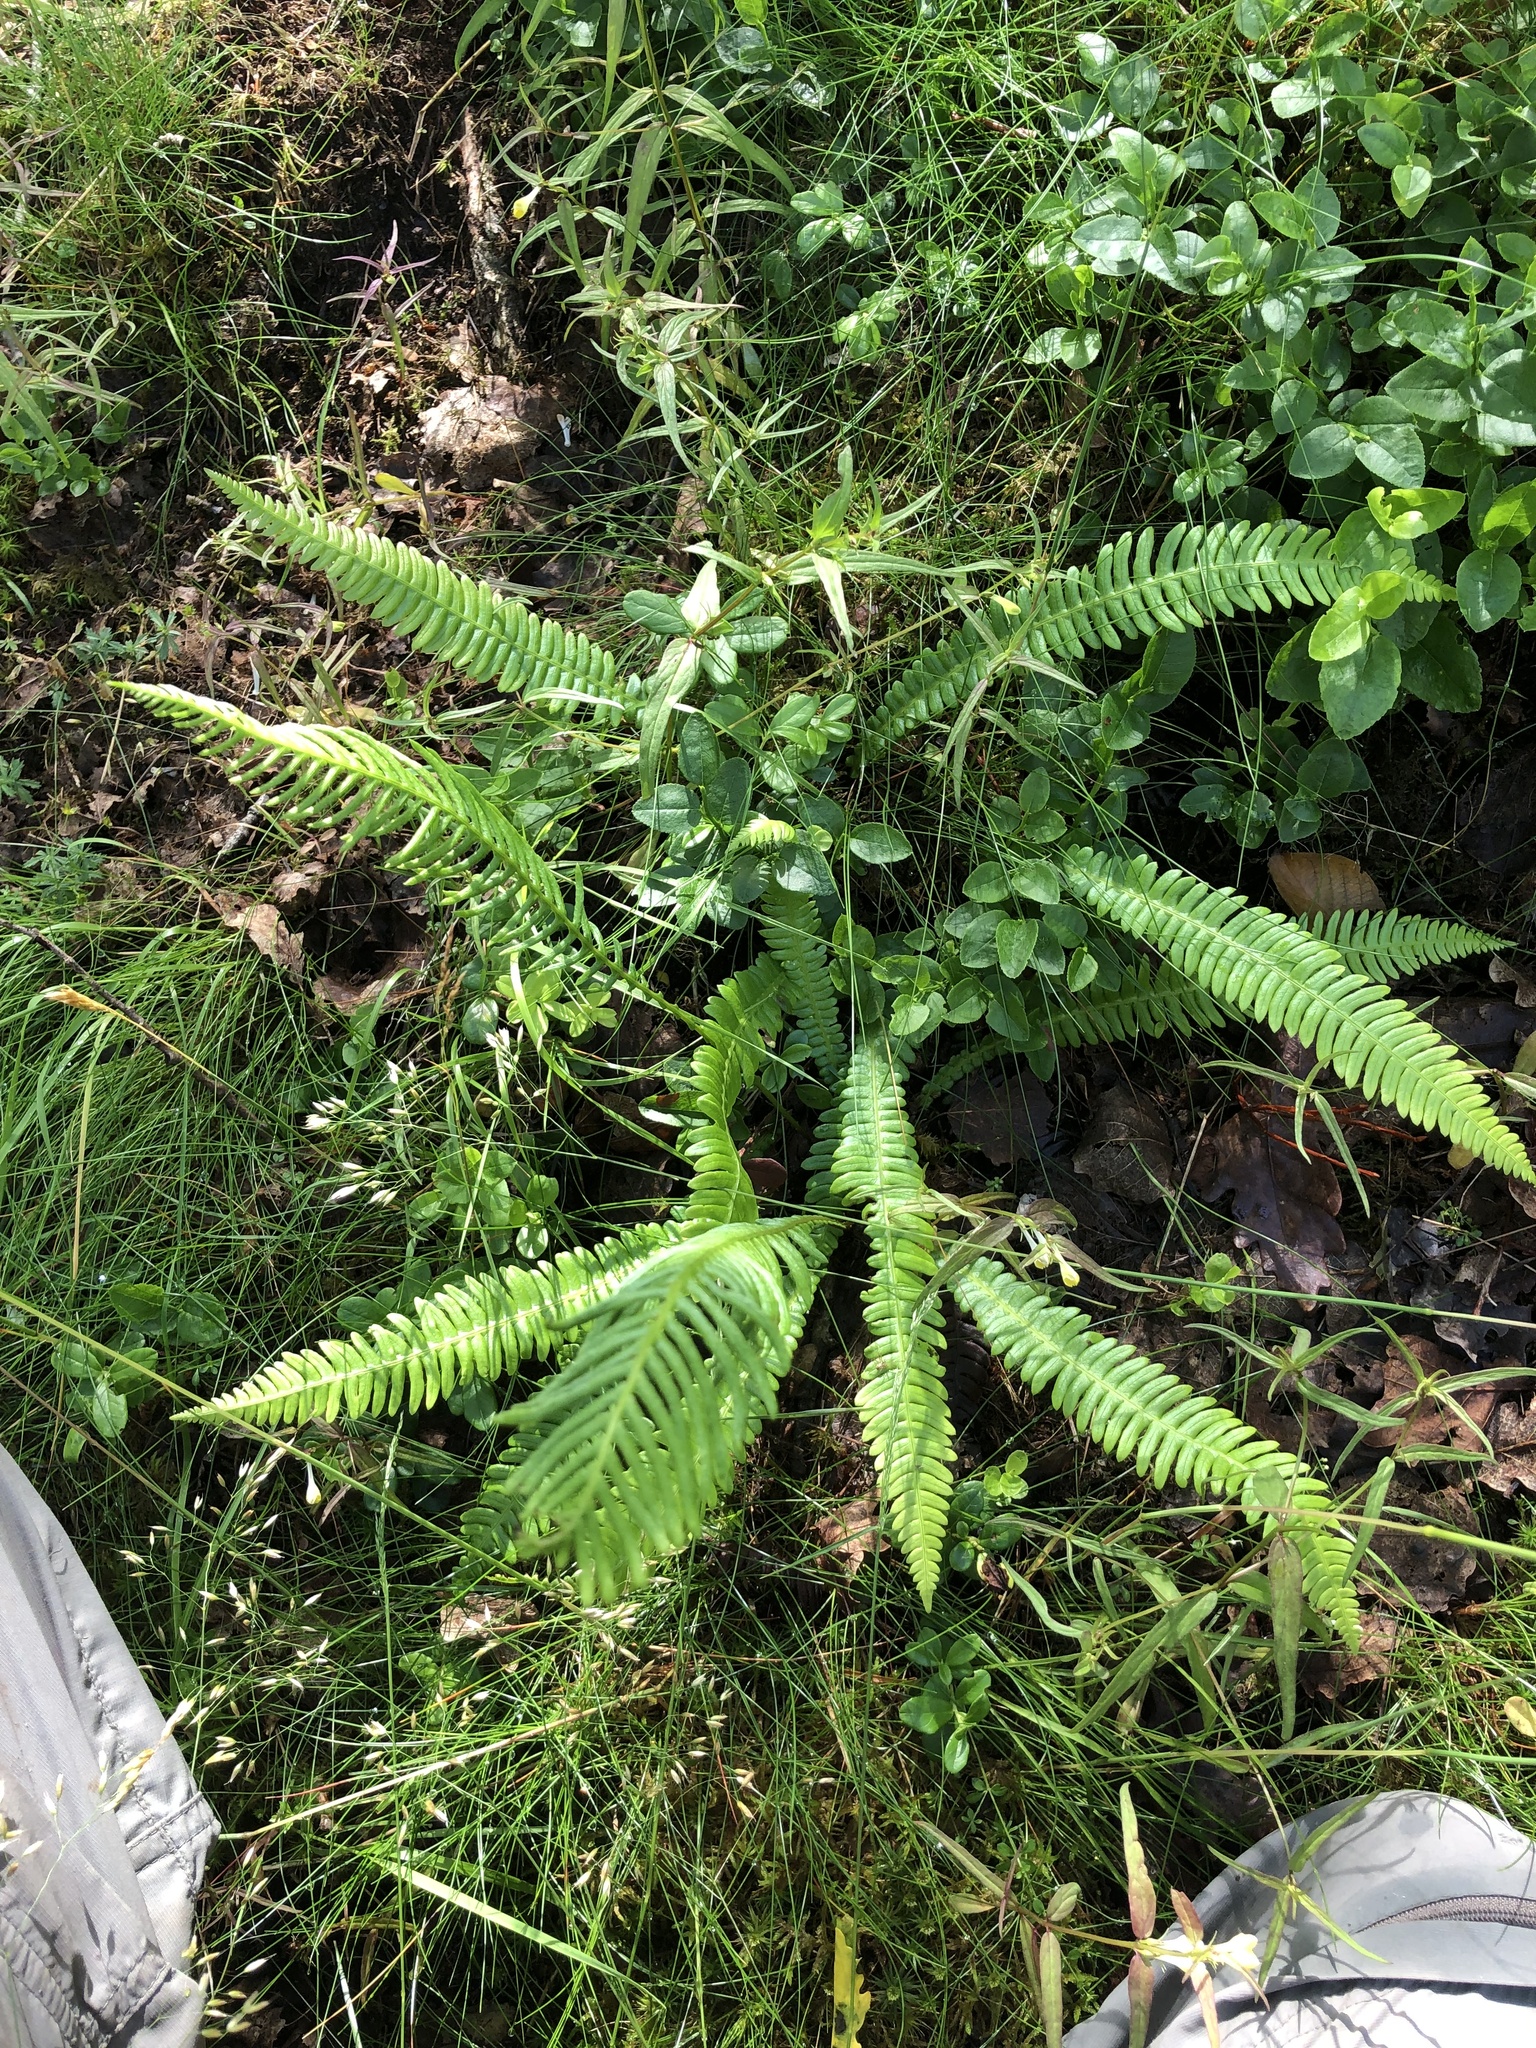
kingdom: Plantae
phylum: Tracheophyta
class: Polypodiopsida
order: Polypodiales
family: Blechnaceae
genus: Struthiopteris
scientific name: Struthiopteris spicant
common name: Deer fern
